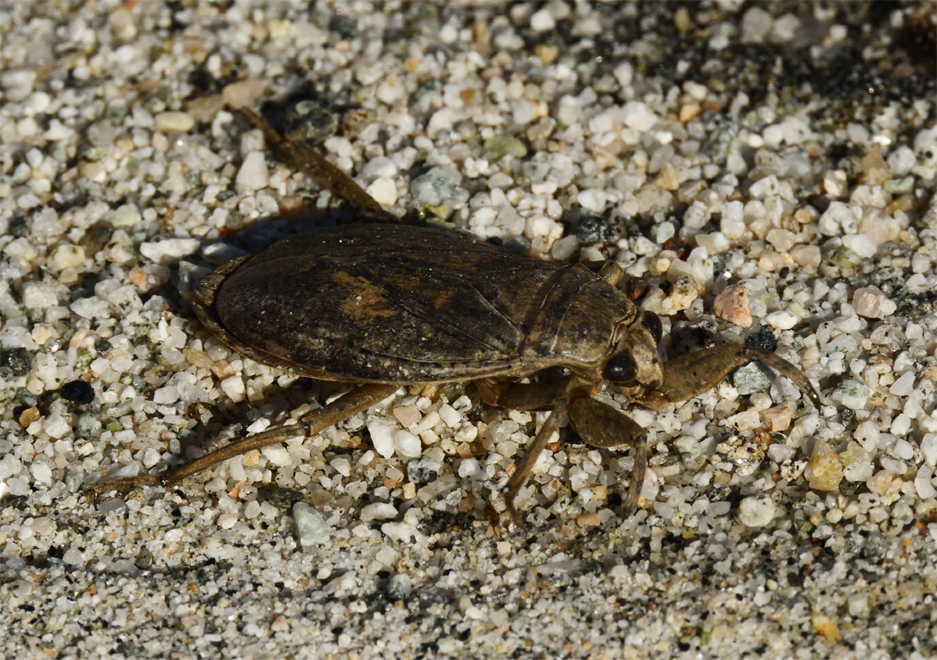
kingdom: Animalia
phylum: Arthropoda
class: Insecta
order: Hemiptera
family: Belostomatidae
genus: Abedus
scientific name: Abedus indentatus
